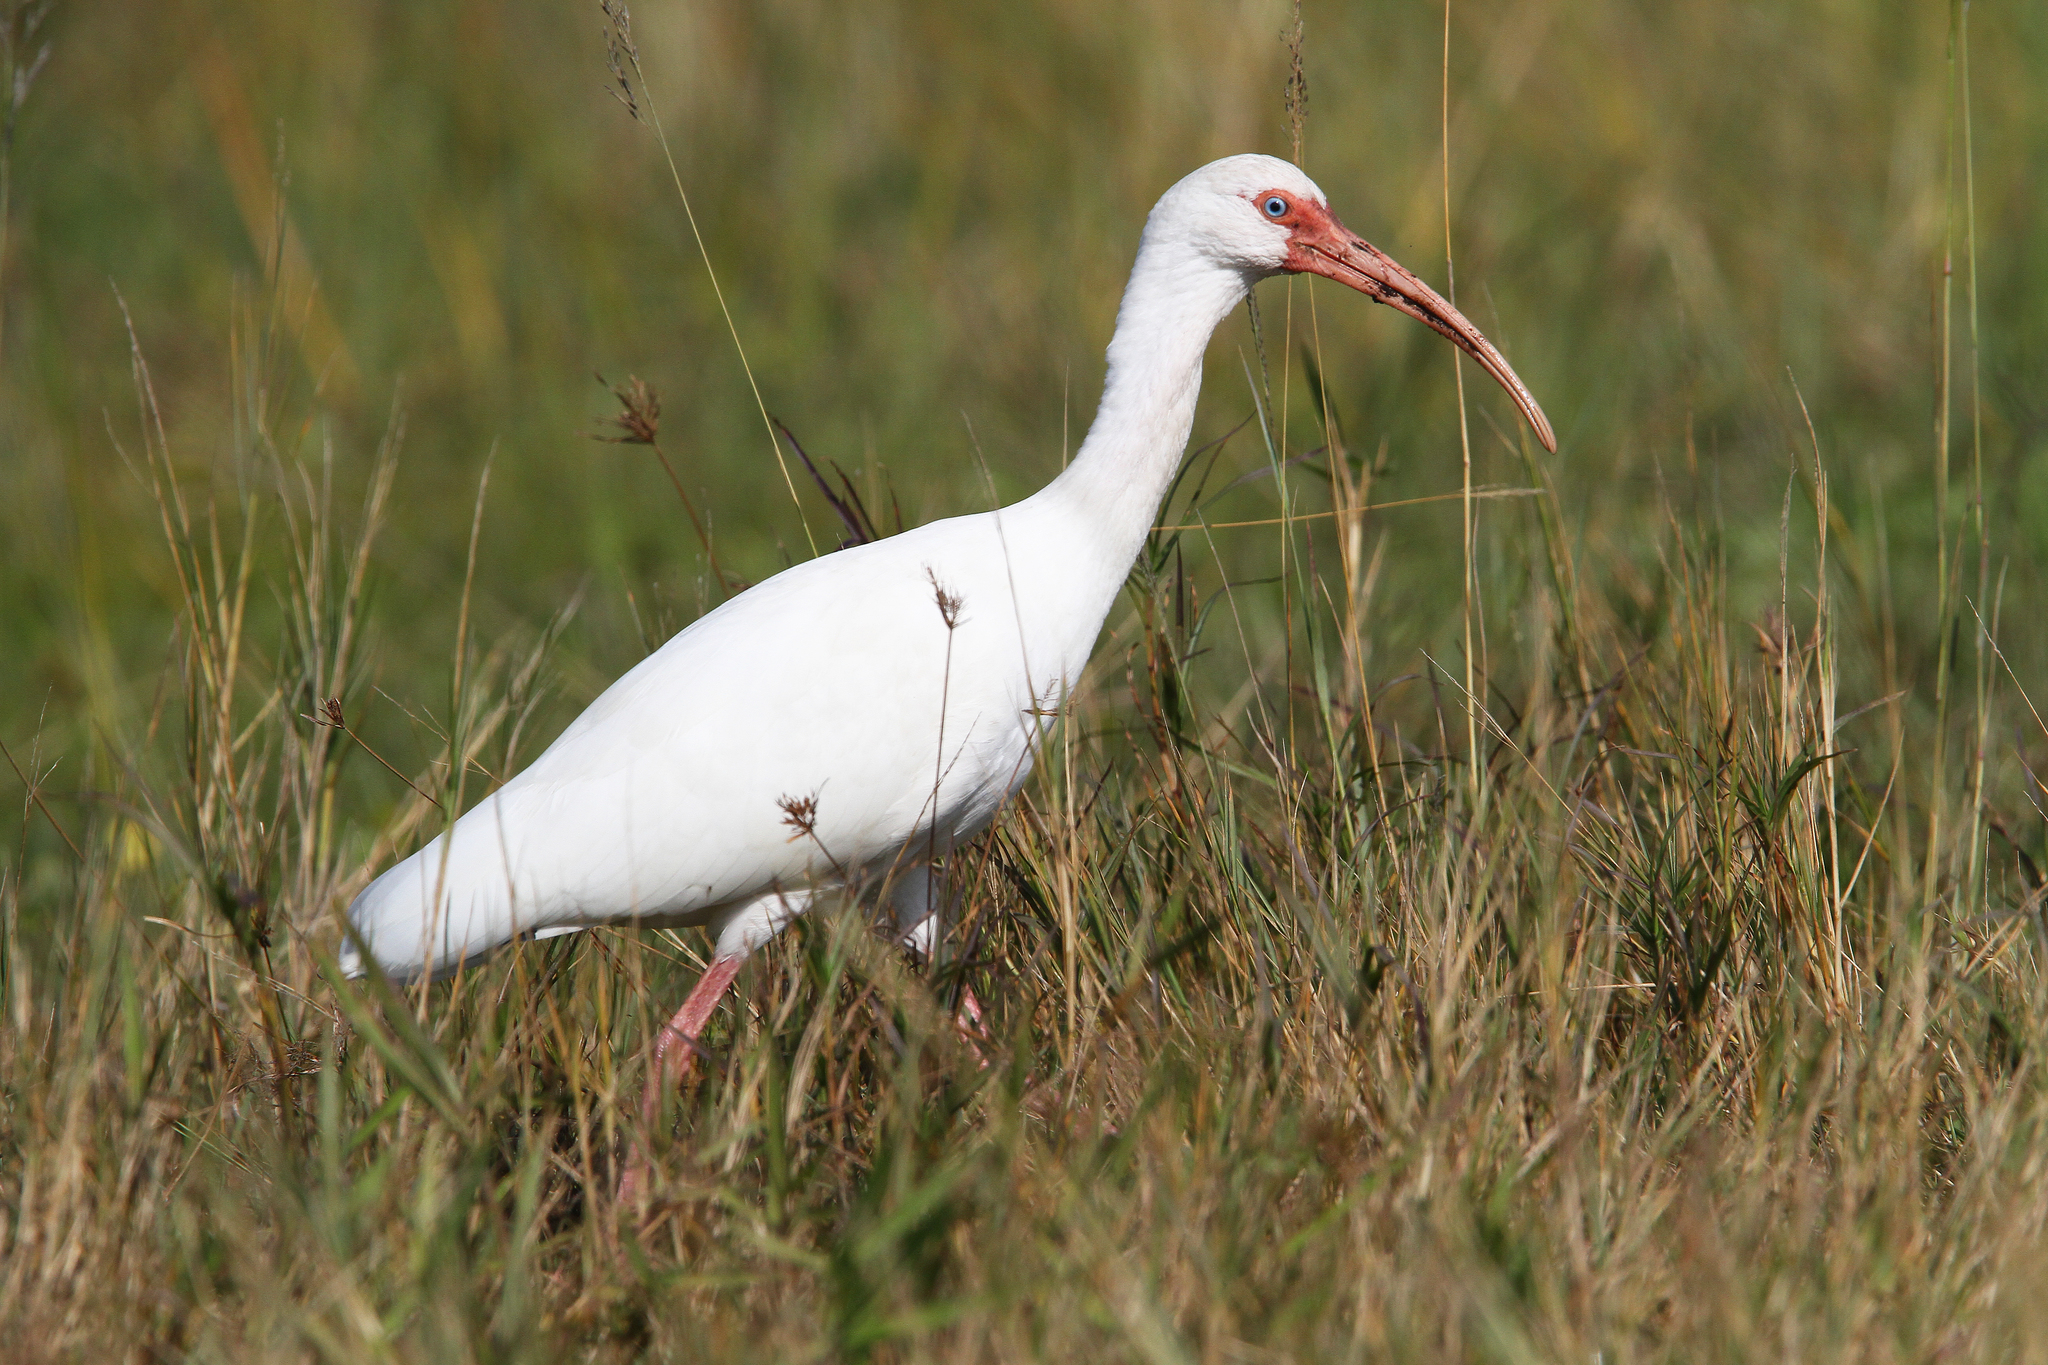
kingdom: Animalia
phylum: Chordata
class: Aves
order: Pelecaniformes
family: Threskiornithidae
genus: Eudocimus
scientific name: Eudocimus albus
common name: White ibis
